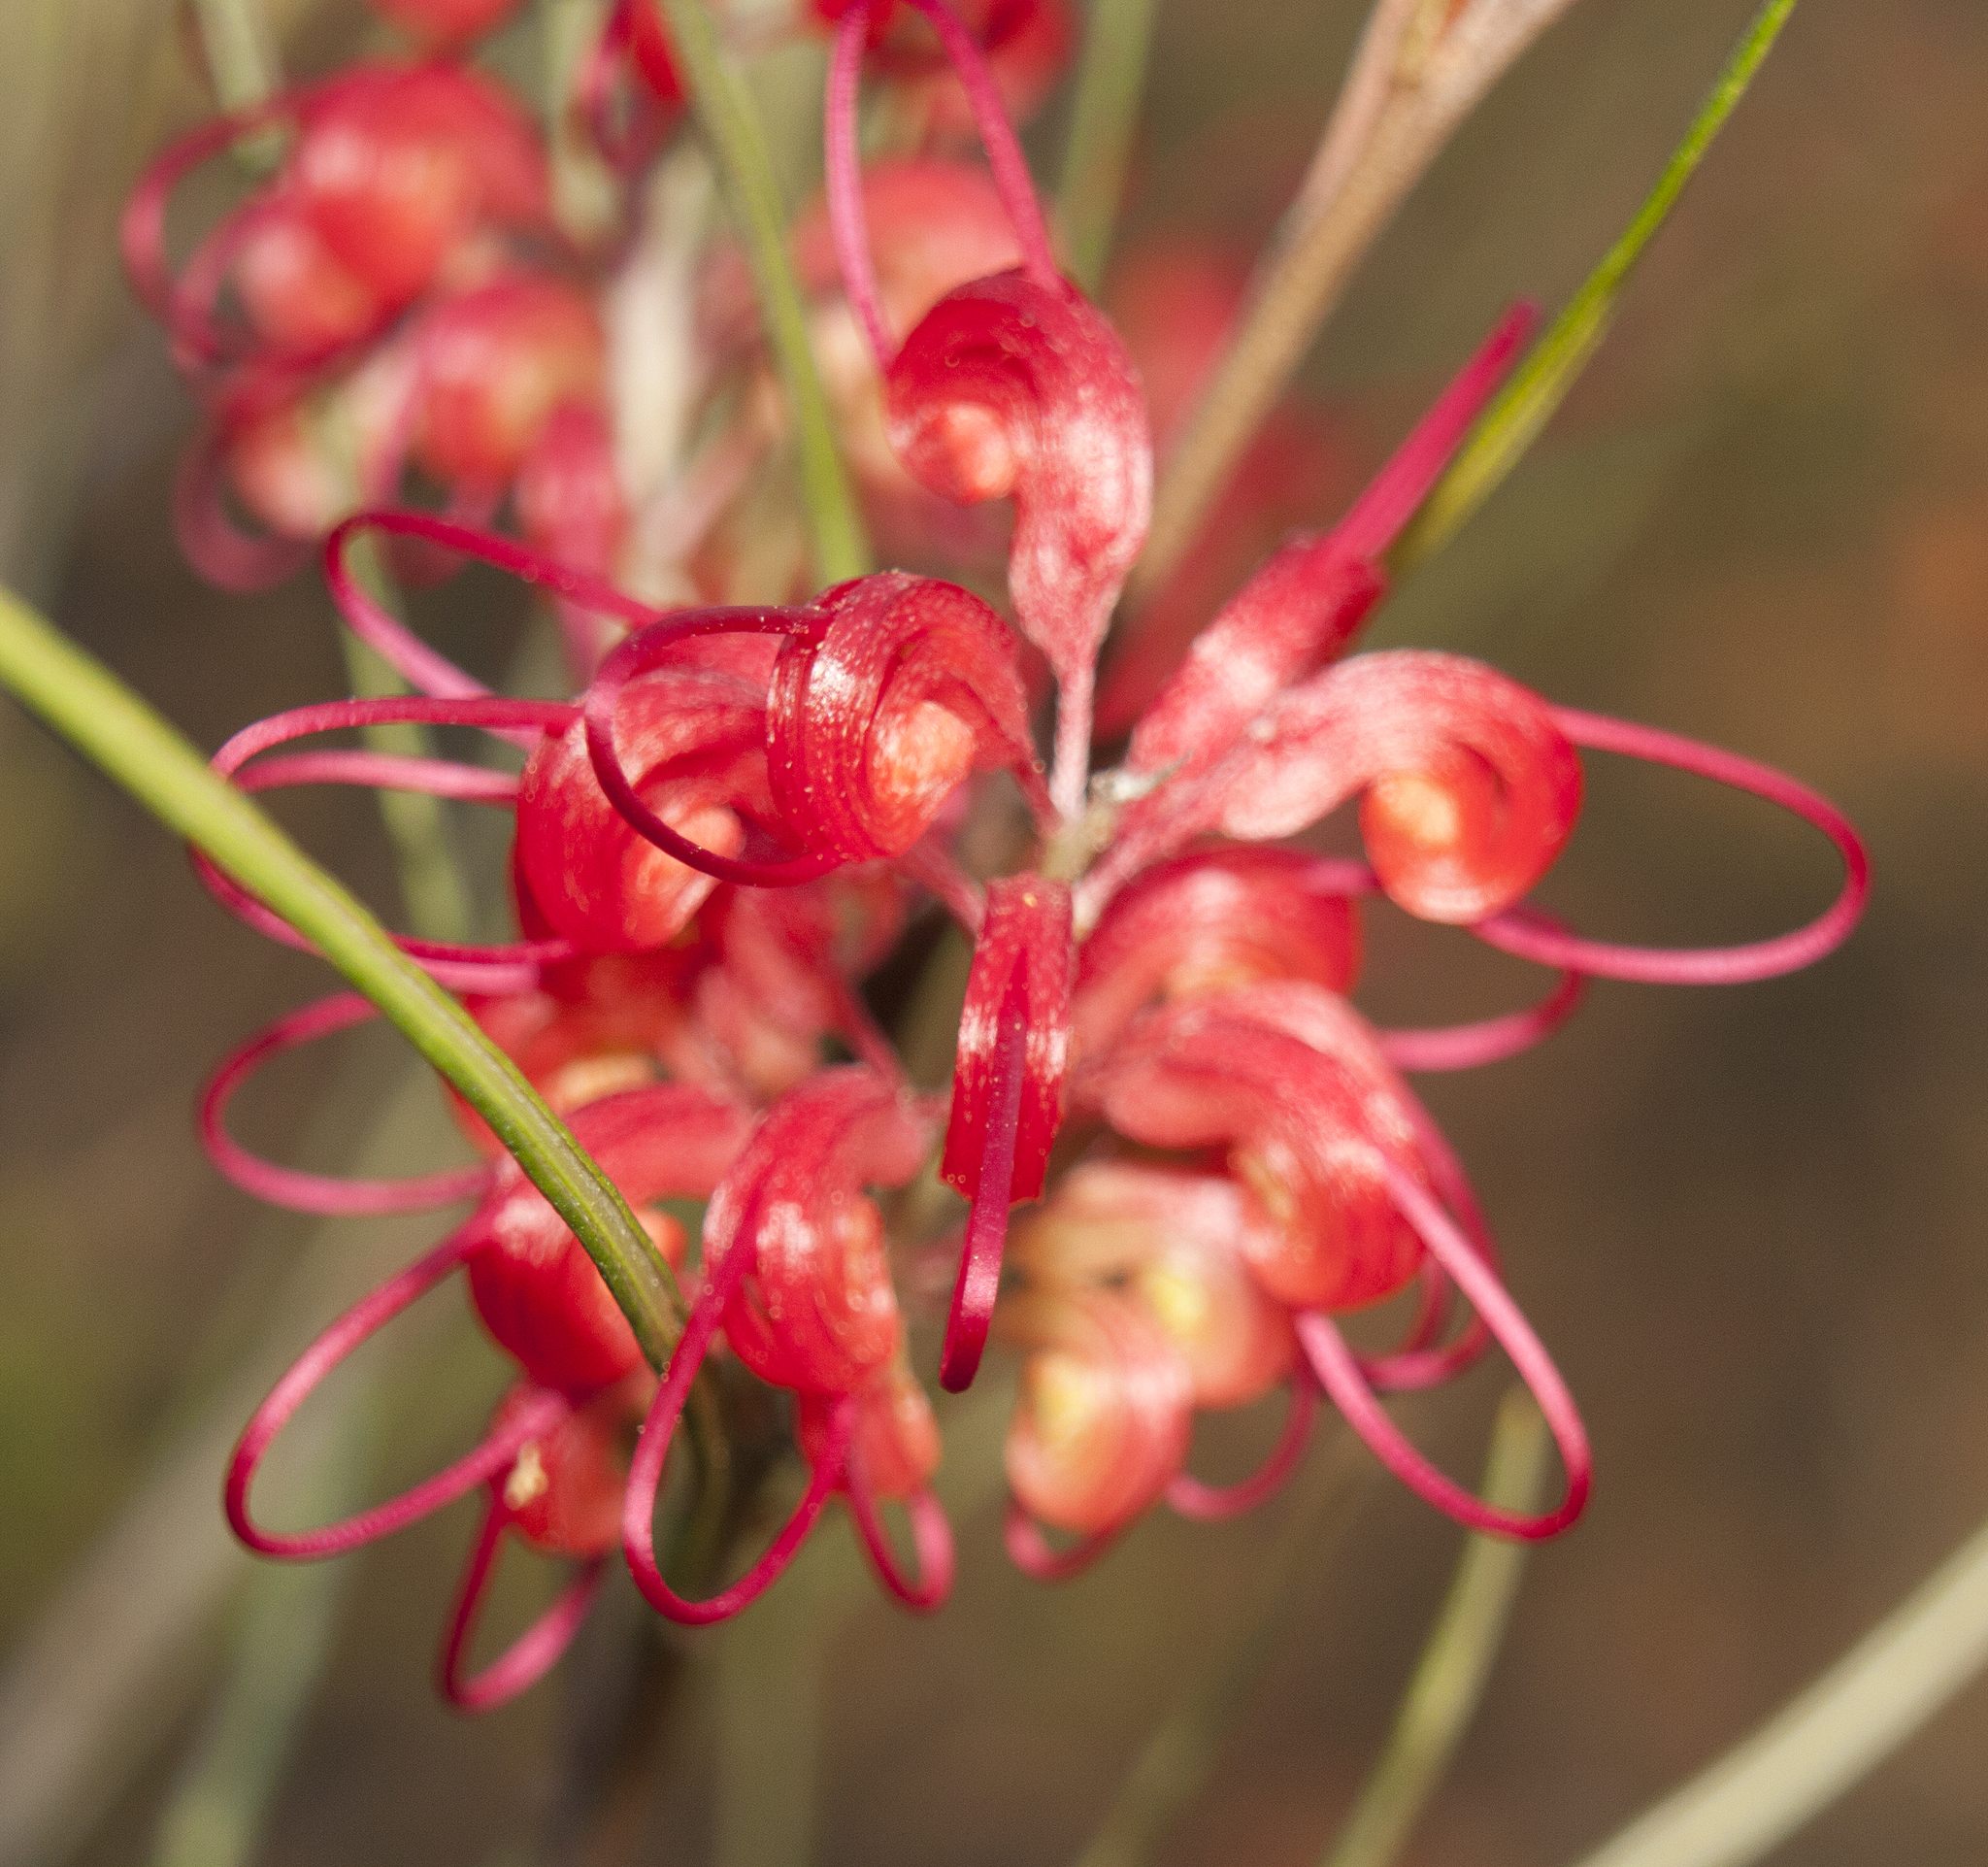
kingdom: Plantae
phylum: Tracheophyta
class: Magnoliopsida
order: Proteales
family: Proteaceae
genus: Grevillea
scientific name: Grevillea longistyla
